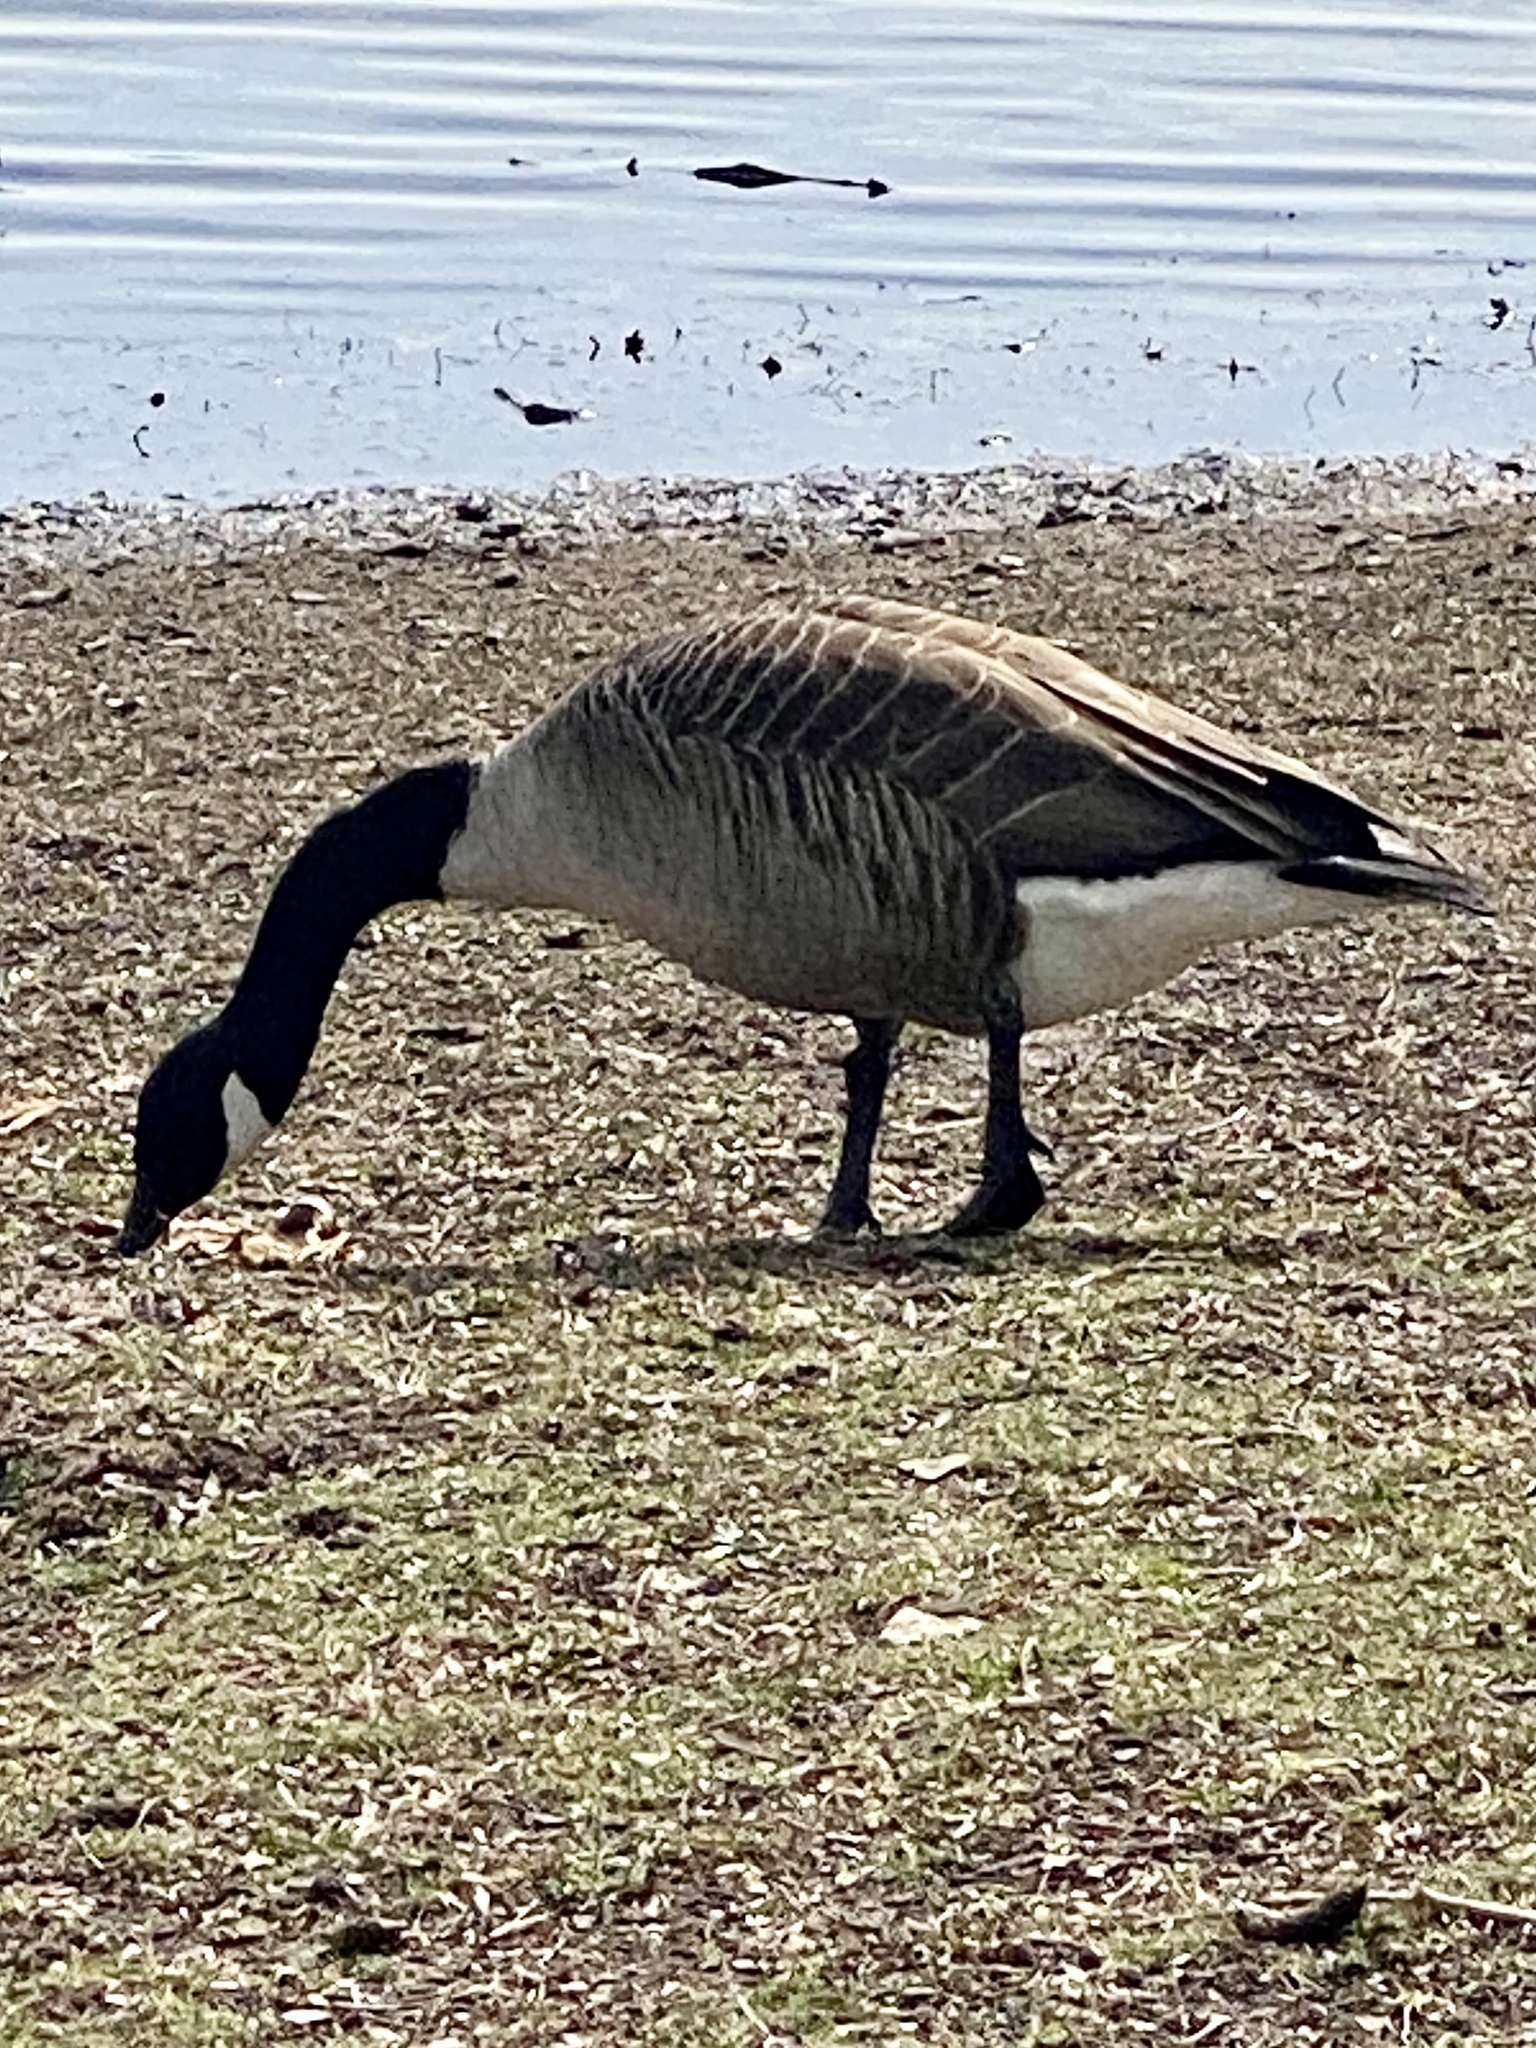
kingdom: Animalia
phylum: Chordata
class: Aves
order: Anseriformes
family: Anatidae
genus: Branta
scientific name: Branta canadensis
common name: Canada goose
